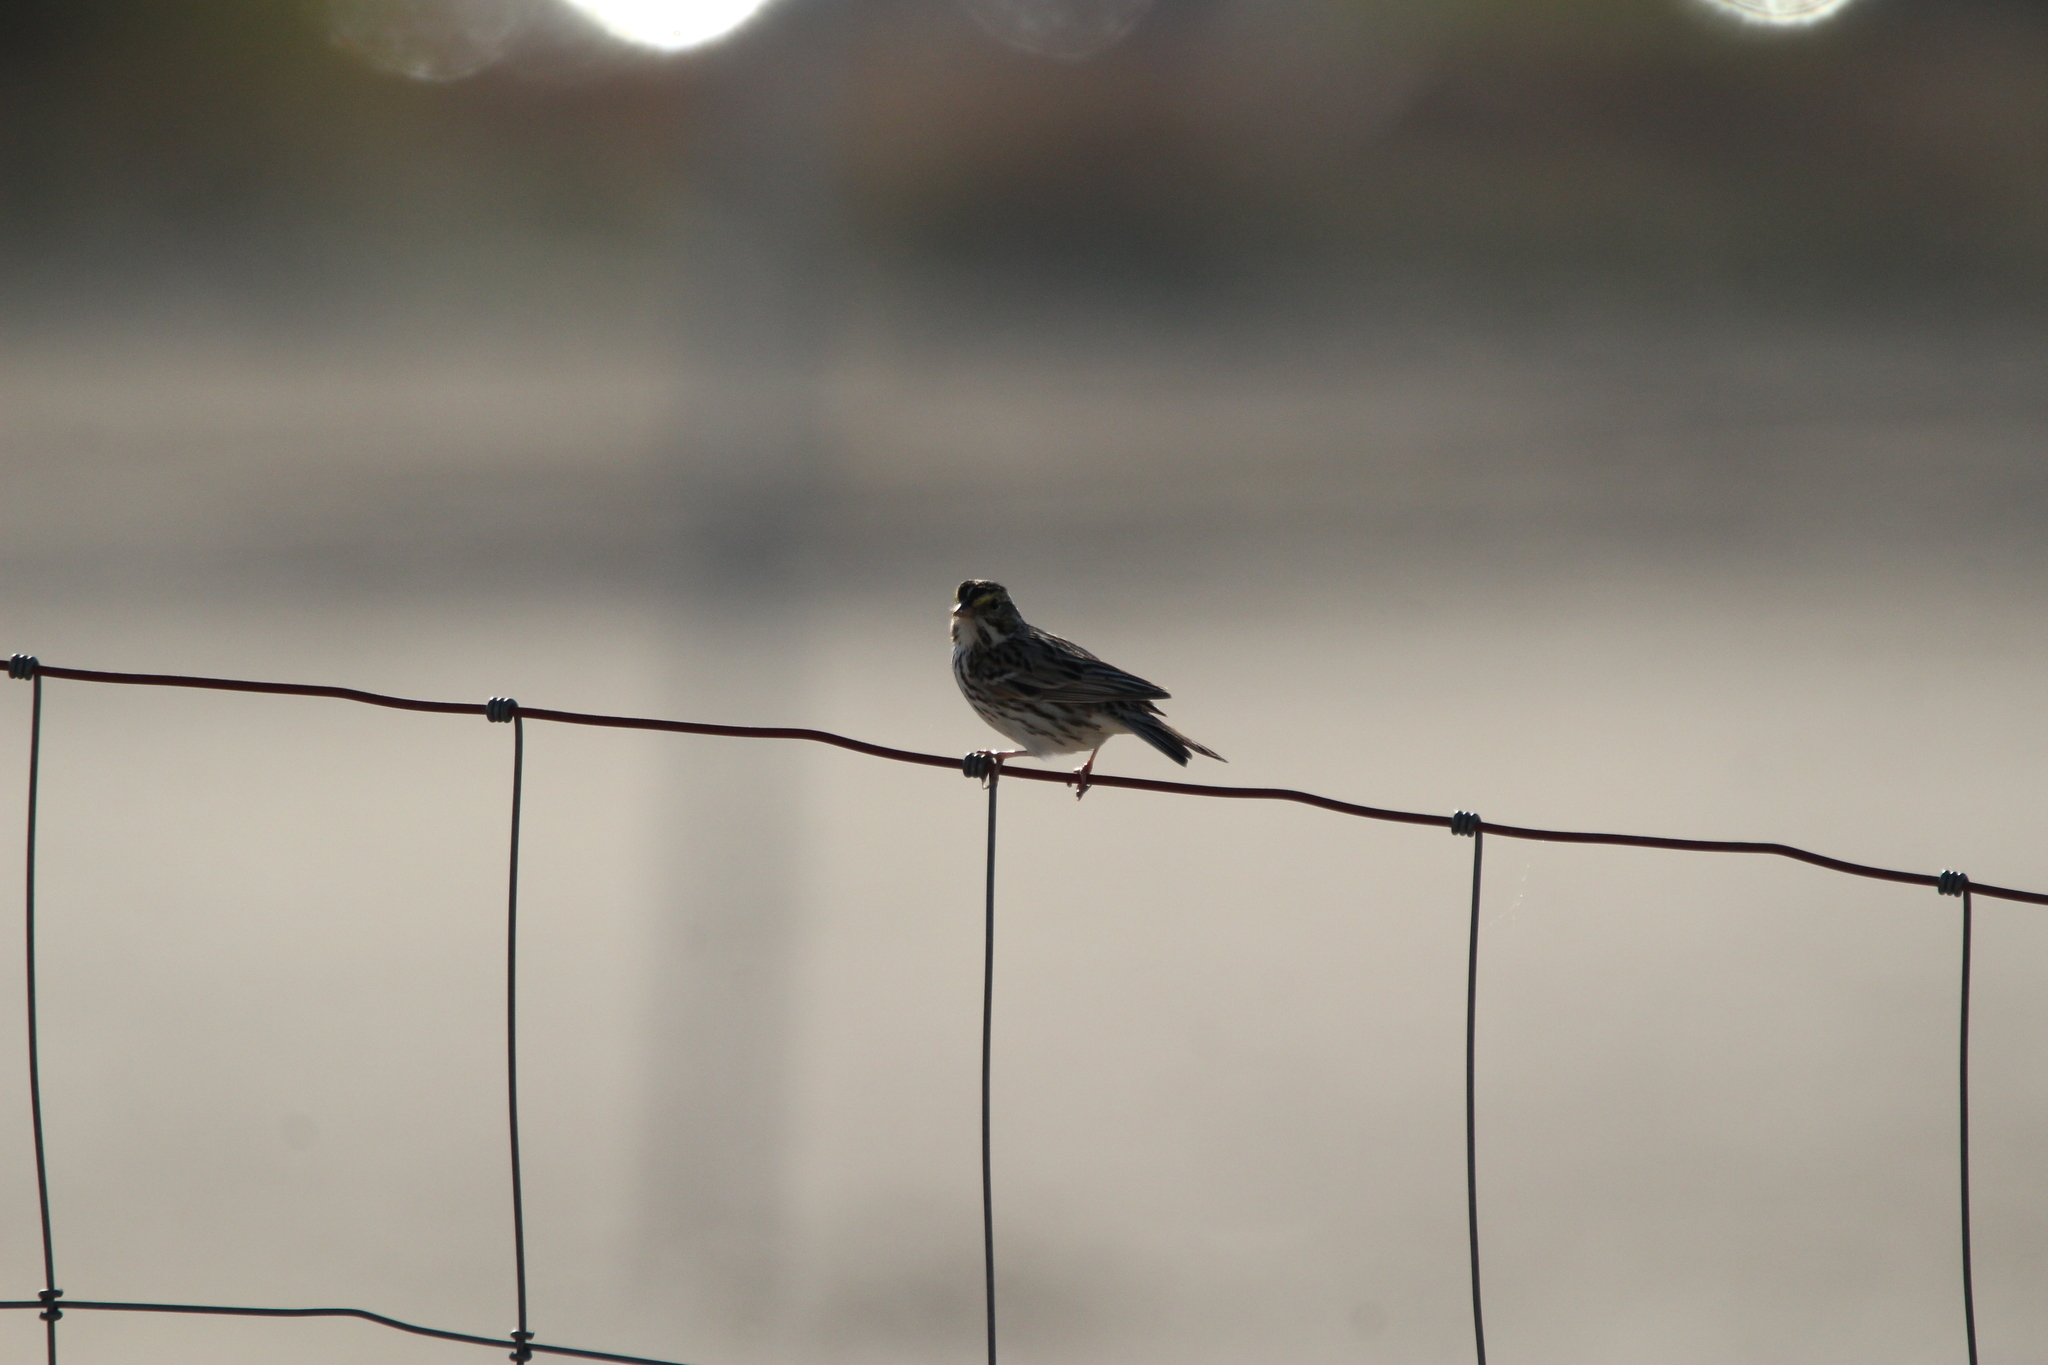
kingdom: Animalia
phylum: Chordata
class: Aves
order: Passeriformes
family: Passerellidae
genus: Passerculus
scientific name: Passerculus sandwichensis
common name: Savannah sparrow
